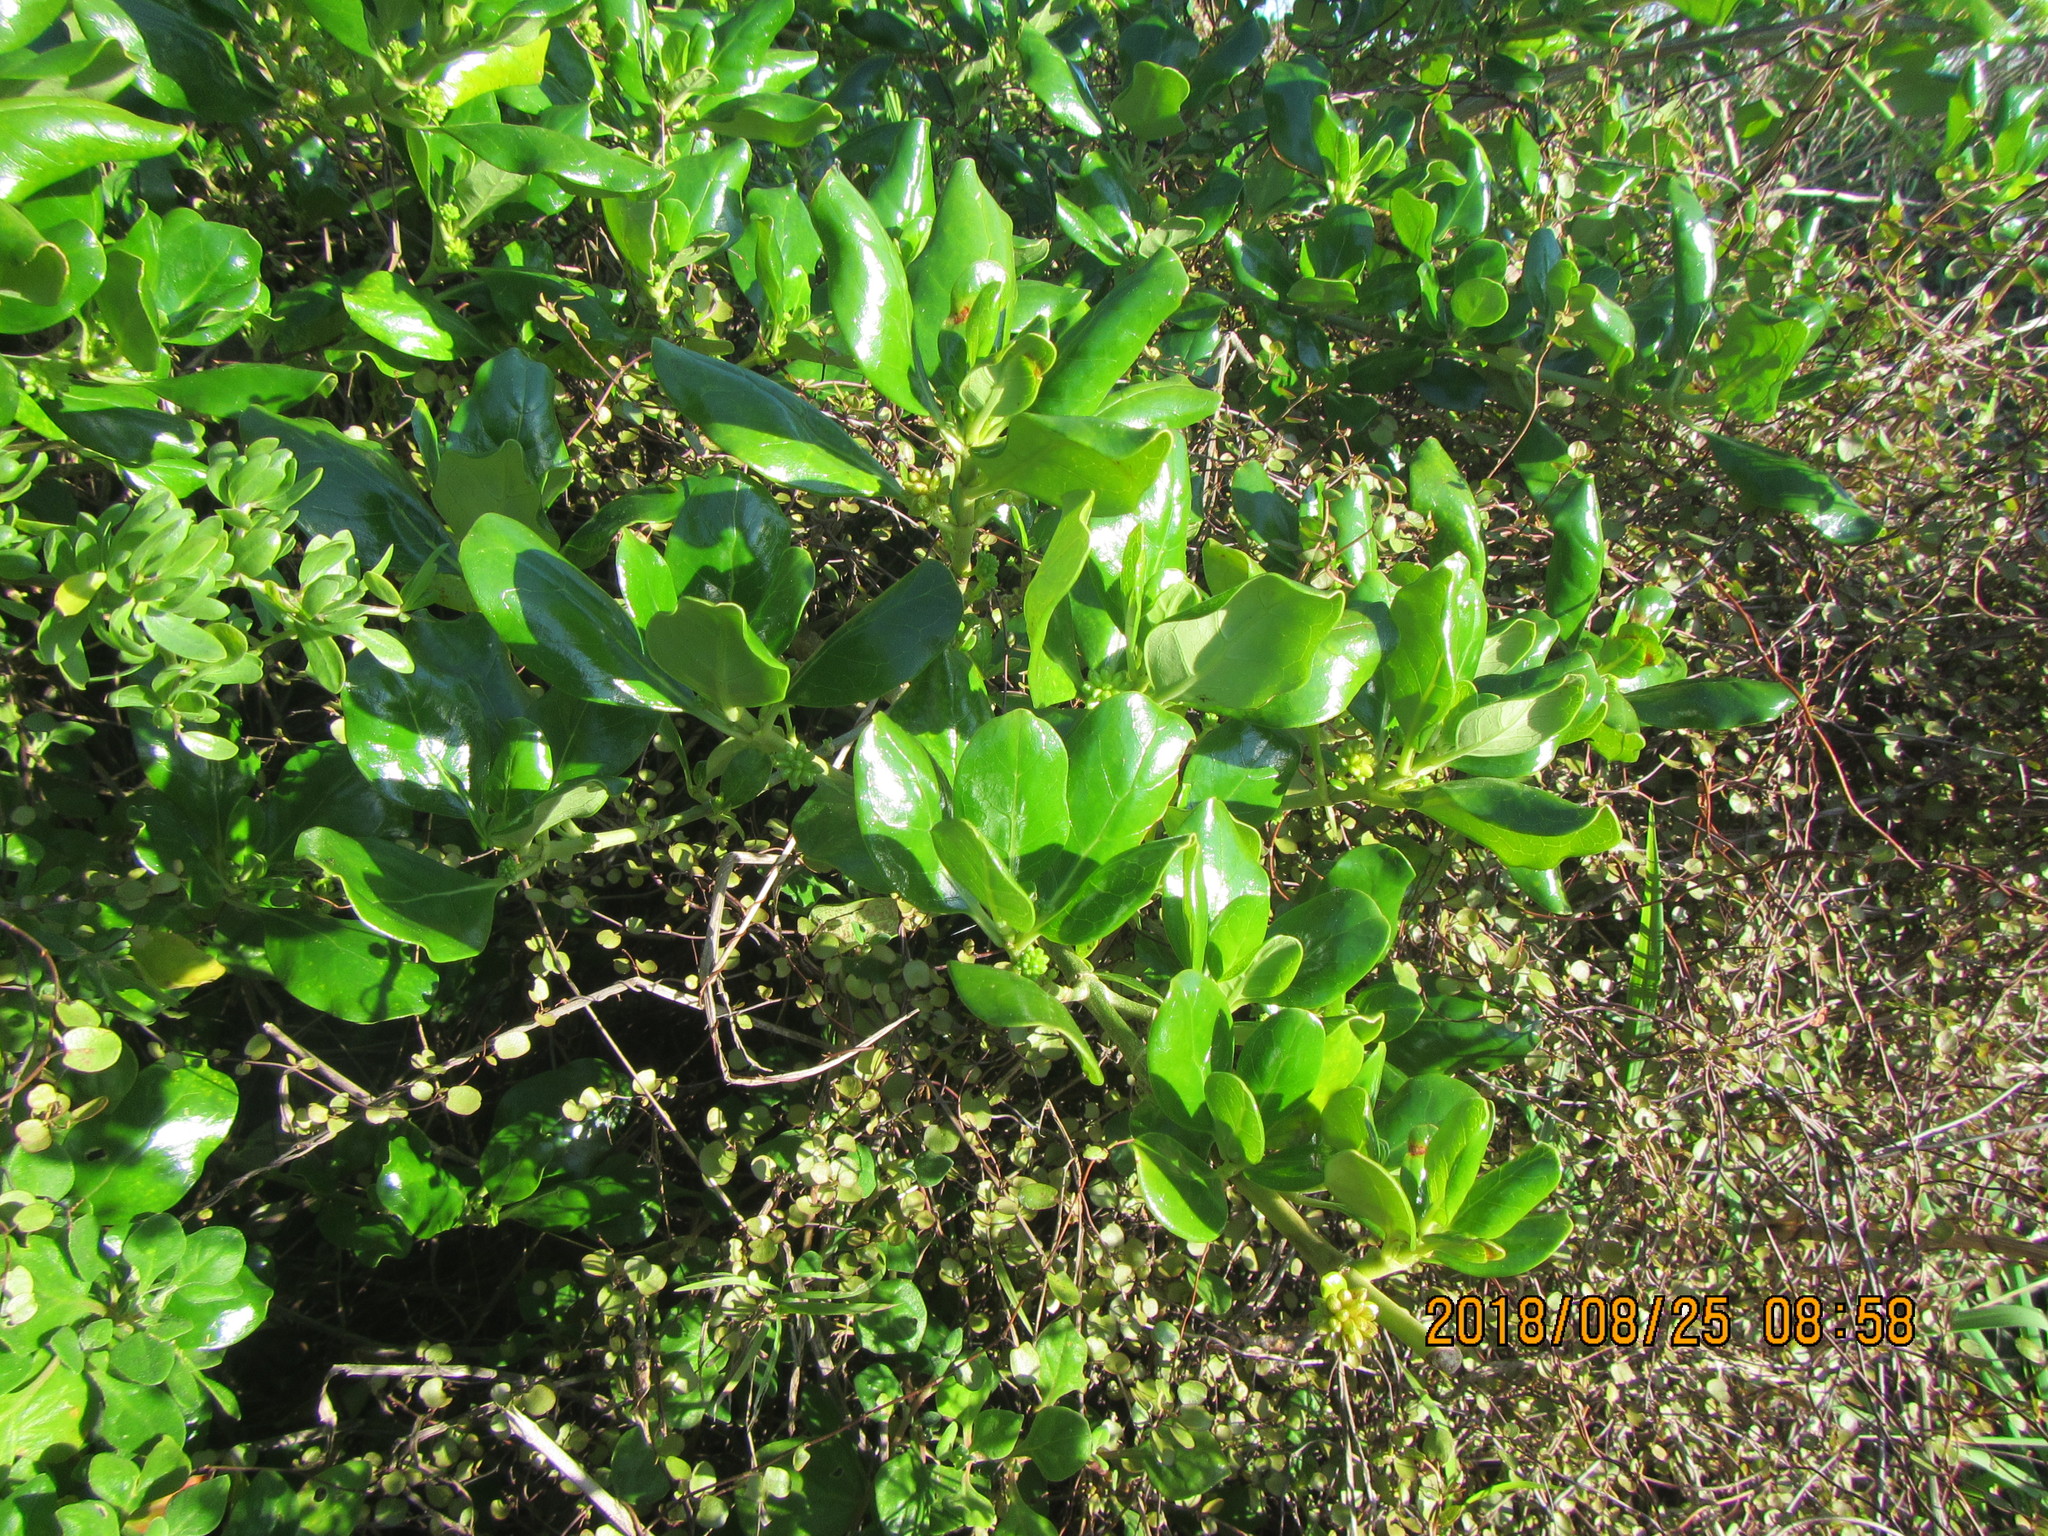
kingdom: Plantae
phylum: Tracheophyta
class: Magnoliopsida
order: Gentianales
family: Rubiaceae
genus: Coprosma
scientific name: Coprosma repens
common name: Tree bedstraw
